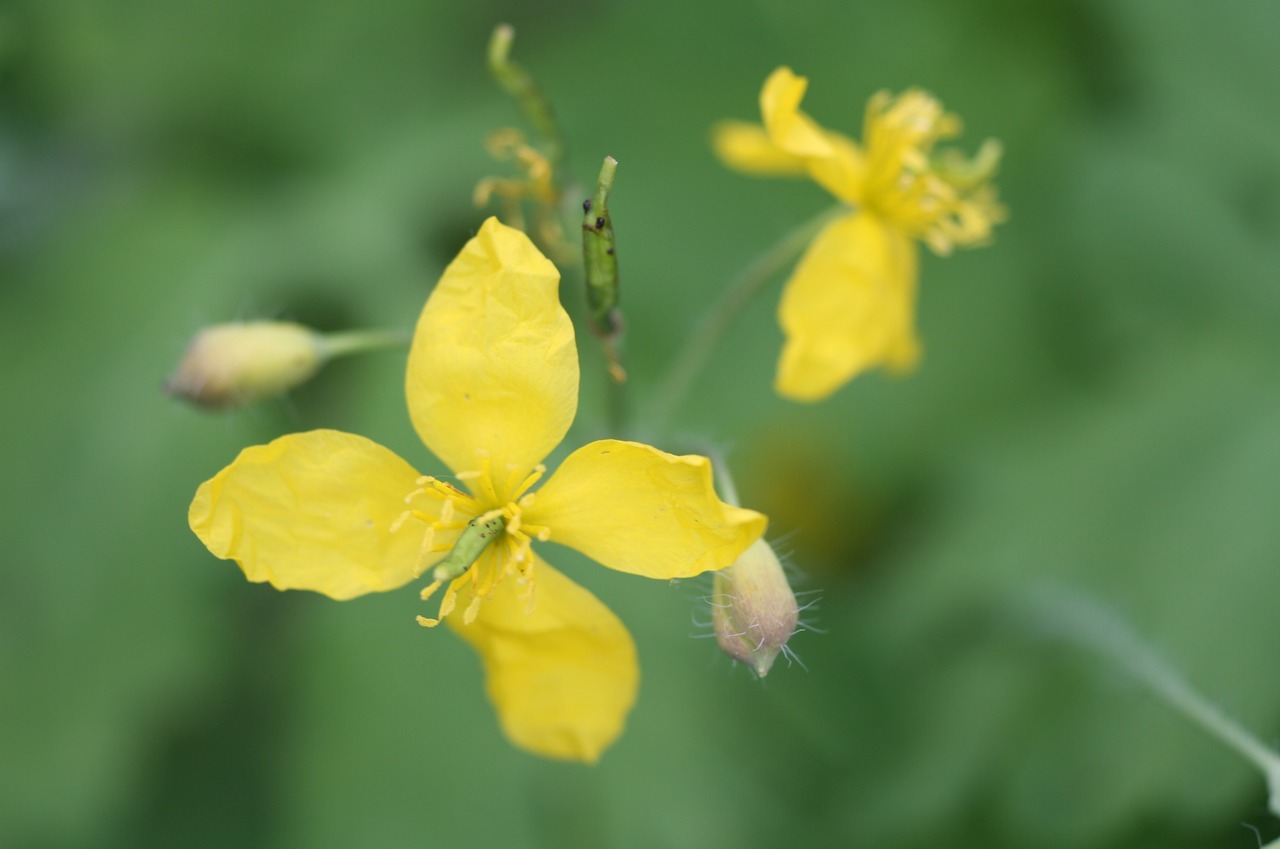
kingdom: Plantae
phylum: Tracheophyta
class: Magnoliopsida
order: Ranunculales
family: Papaveraceae
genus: Chelidonium
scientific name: Chelidonium majus
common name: Greater celandine
